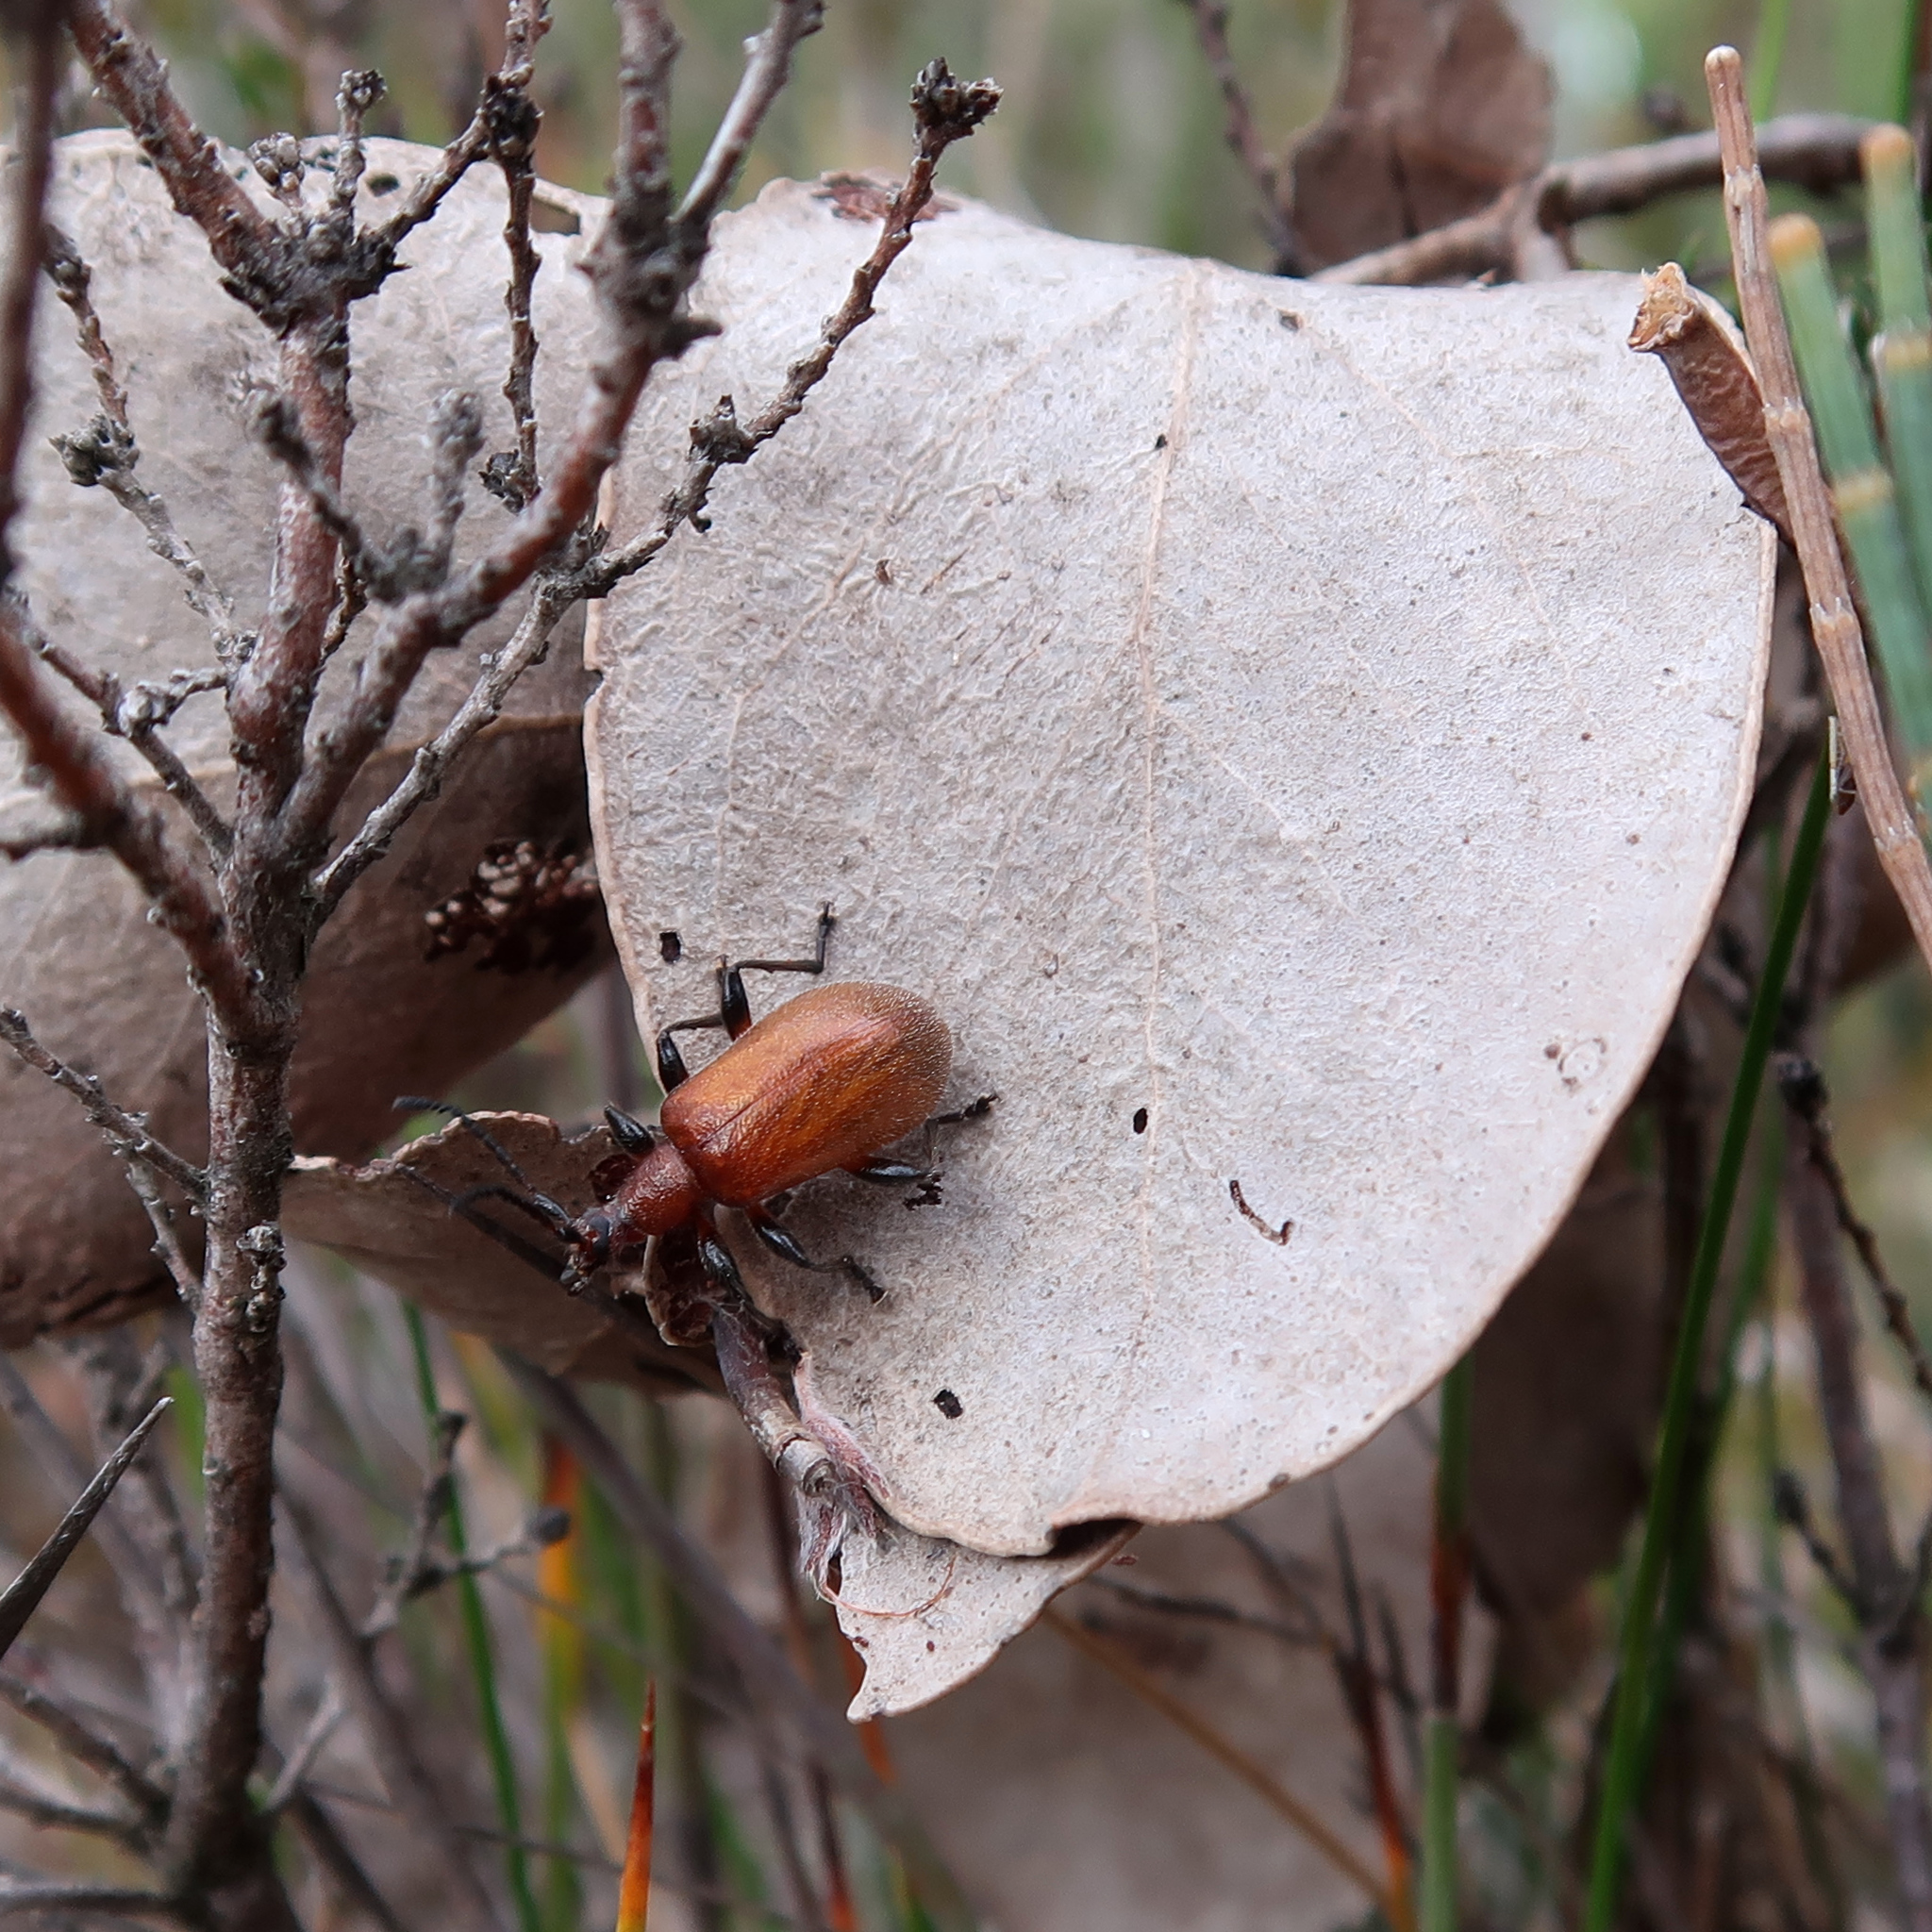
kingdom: Animalia
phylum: Arthropoda
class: Insecta
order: Coleoptera
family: Tenebrionidae
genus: Ecnolagria
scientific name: Ecnolagria
